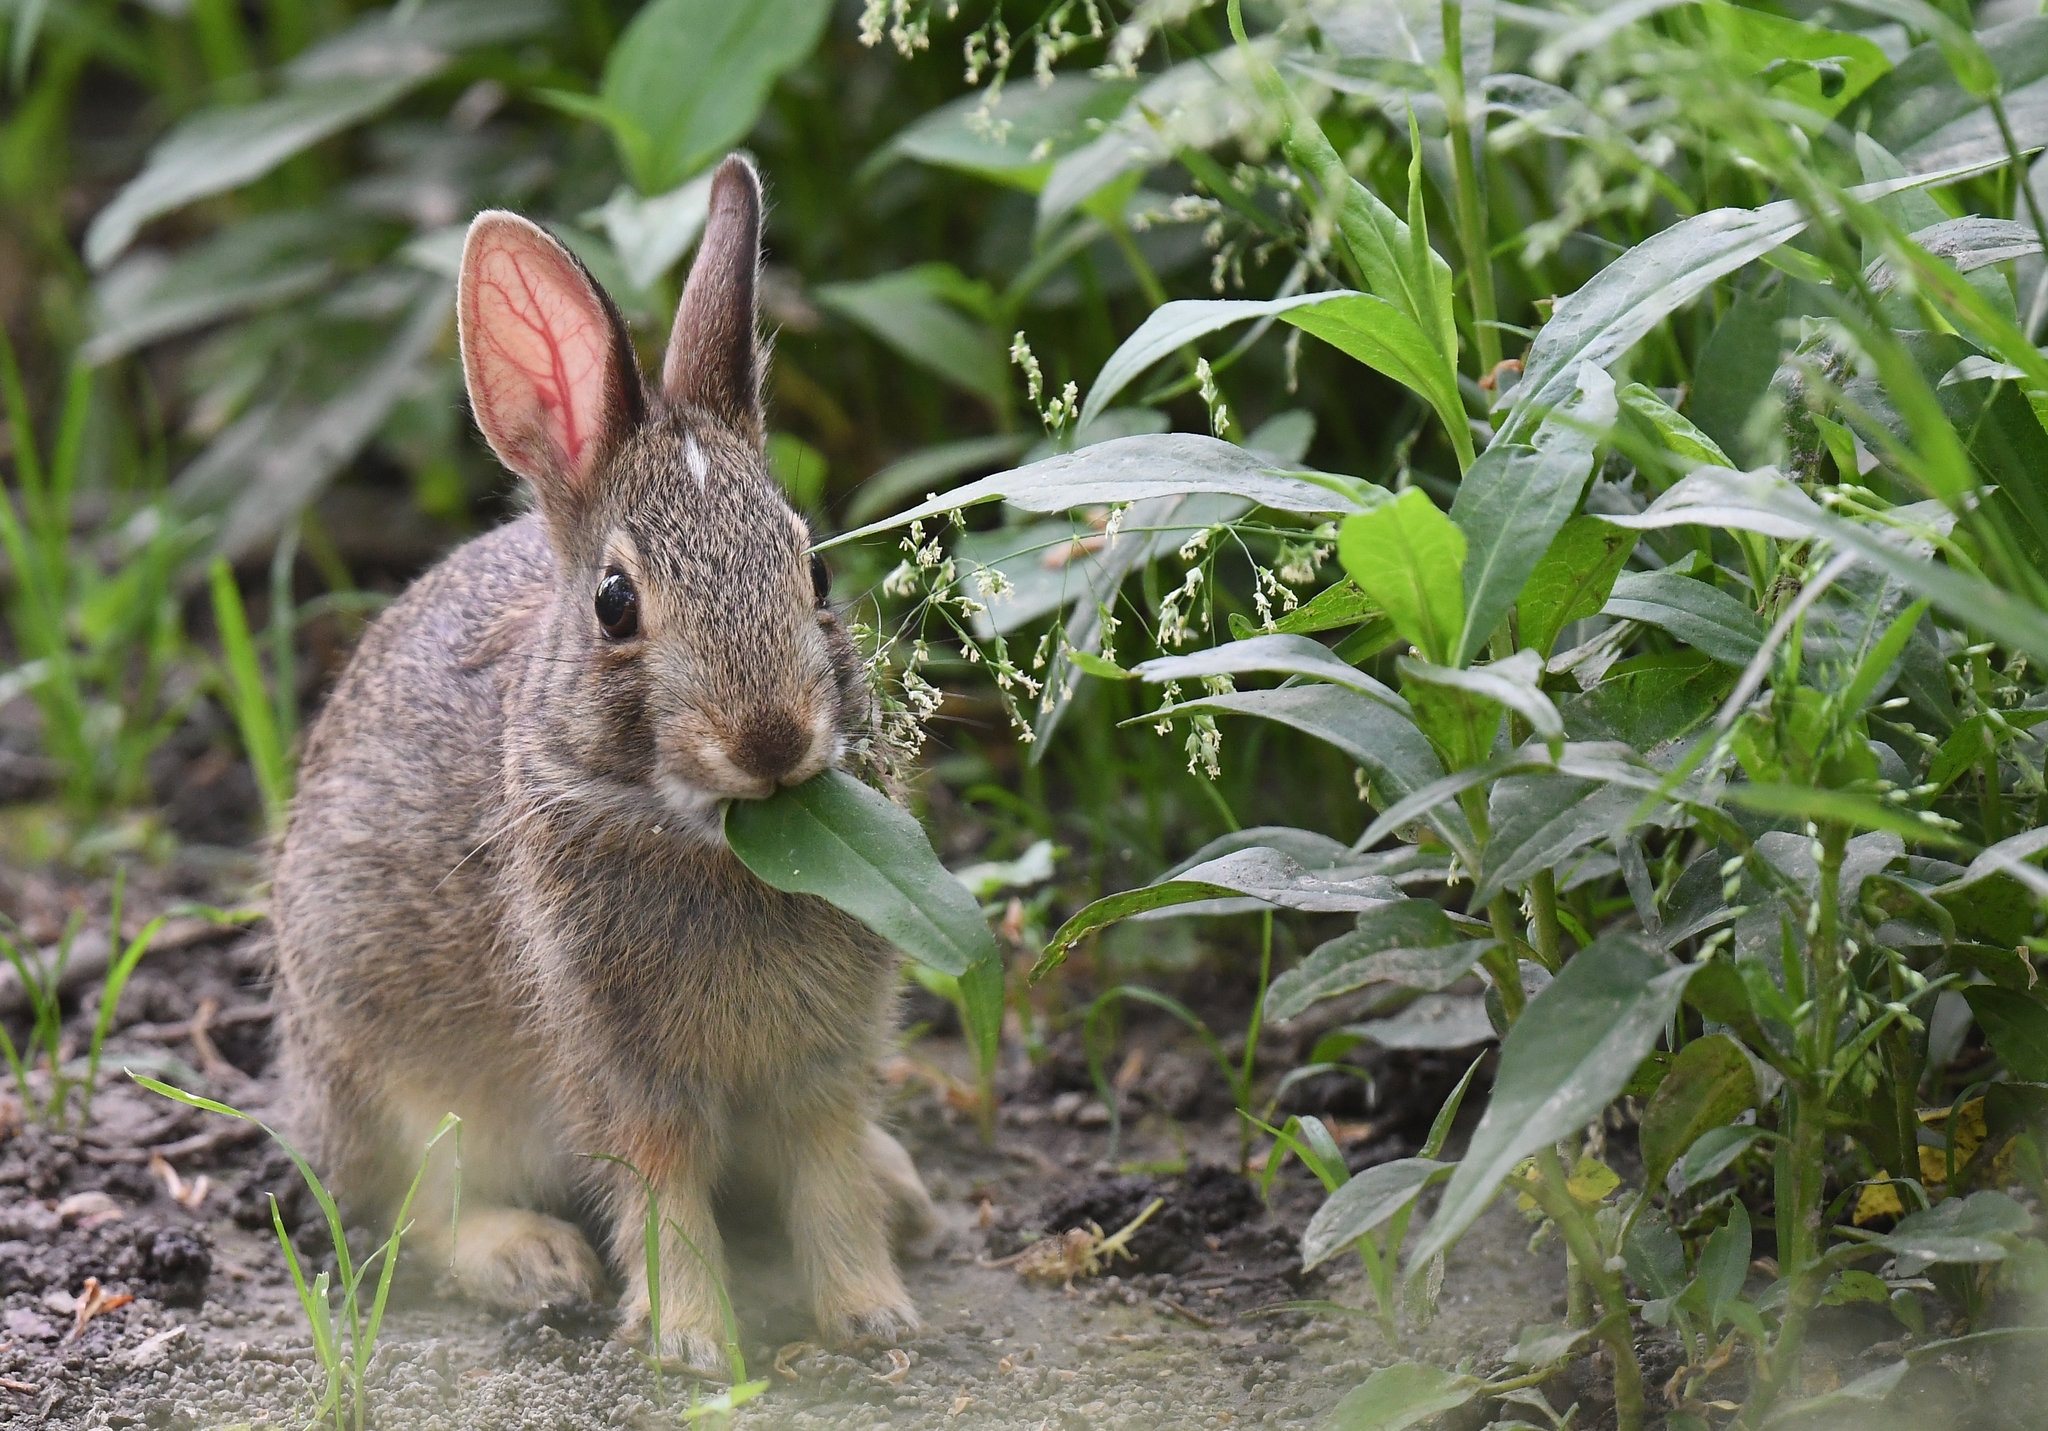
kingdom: Animalia
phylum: Chordata
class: Mammalia
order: Lagomorpha
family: Leporidae
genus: Sylvilagus
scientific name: Sylvilagus floridanus
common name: Eastern cottontail
